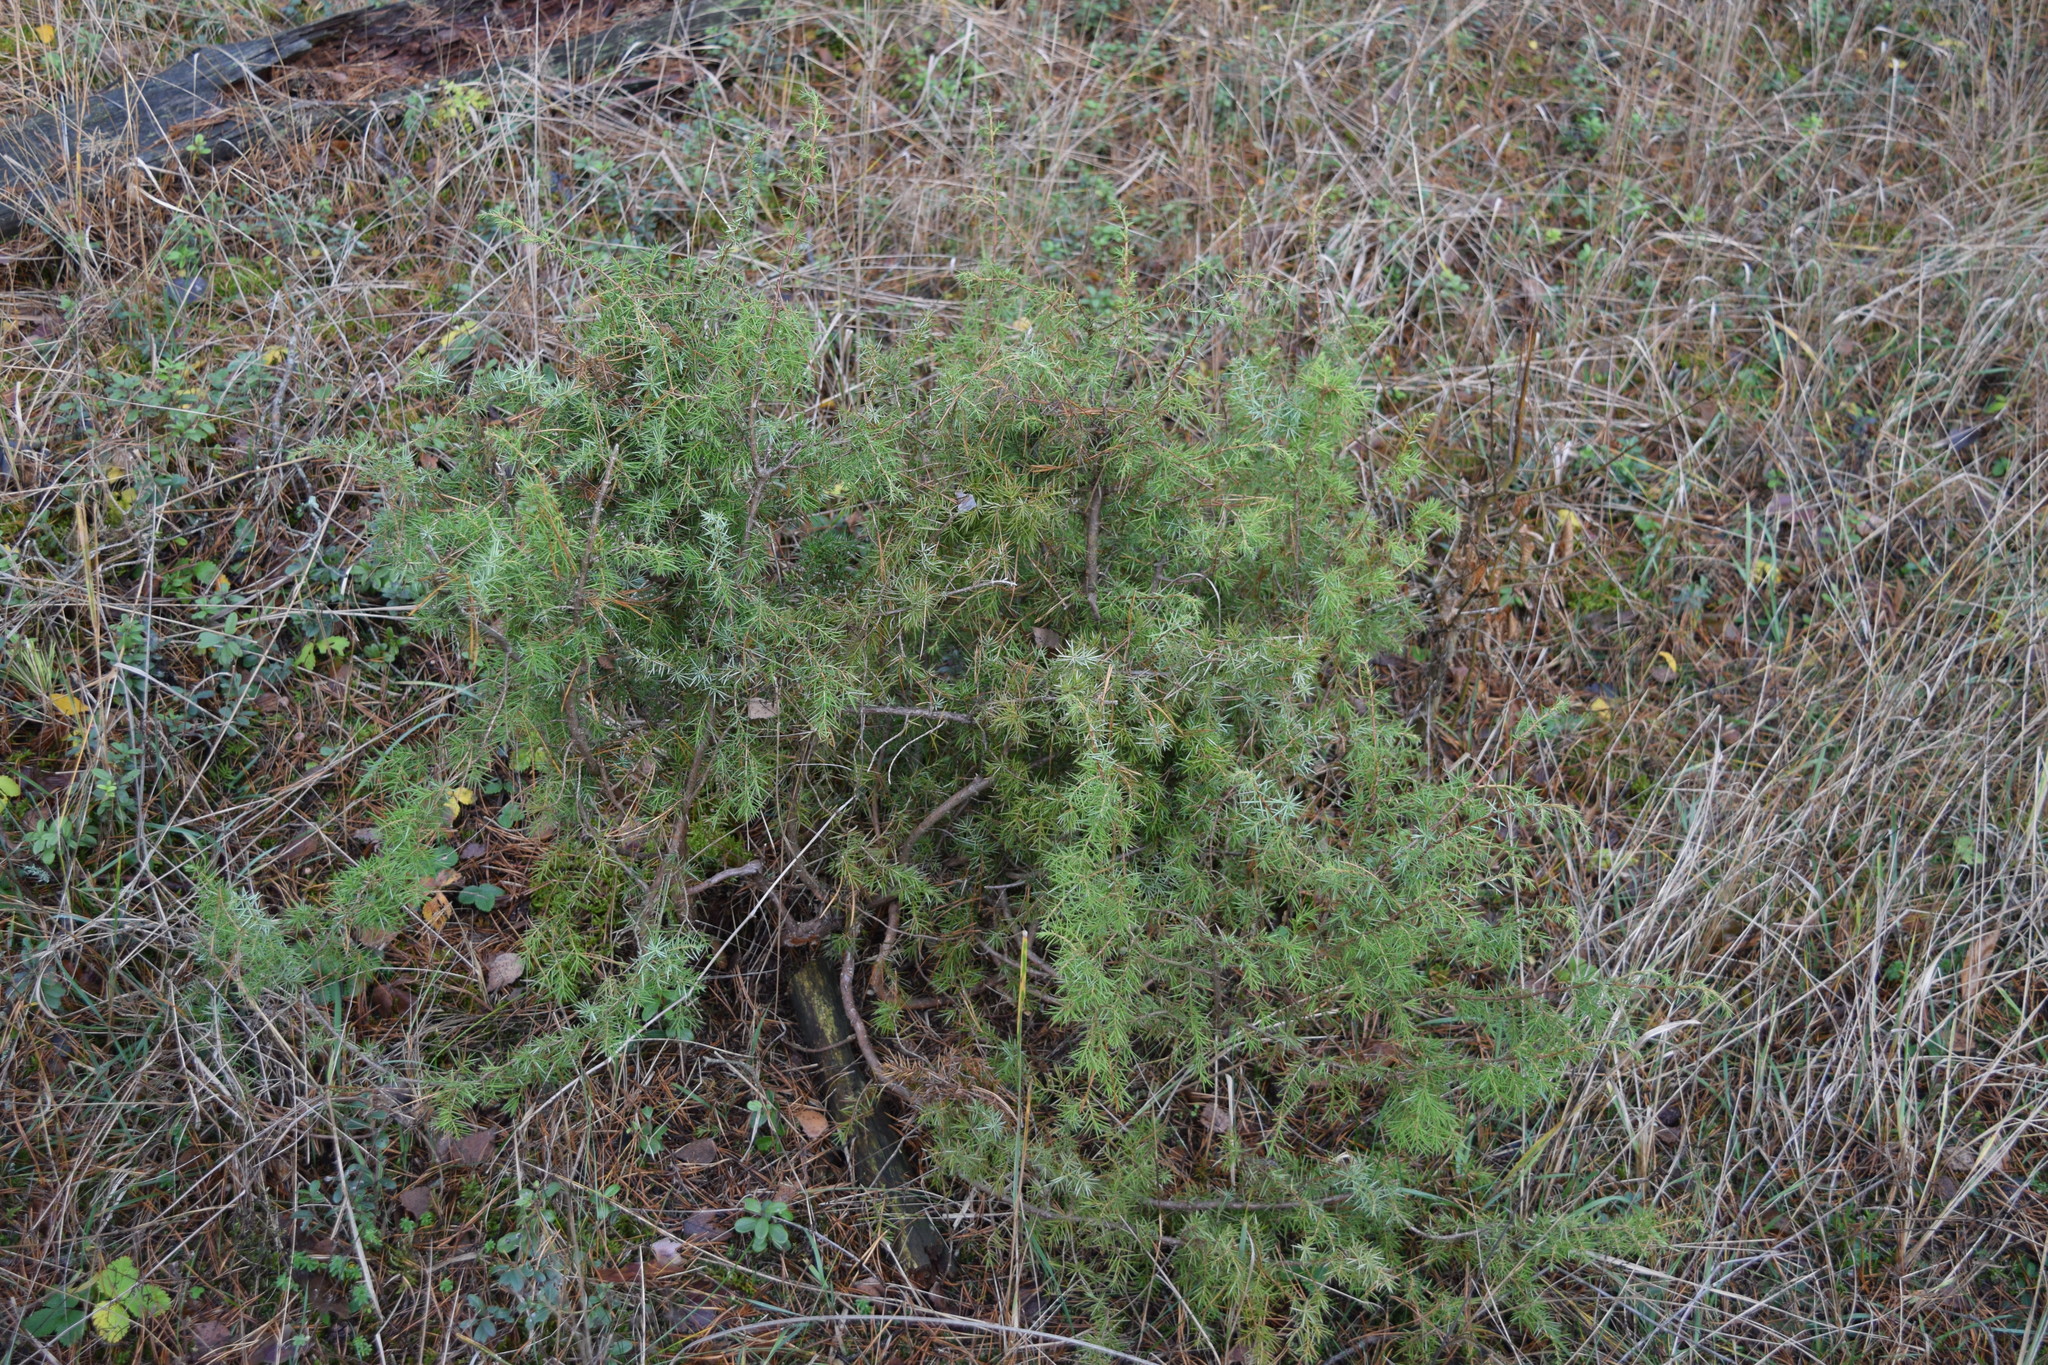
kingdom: Plantae
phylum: Tracheophyta
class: Pinopsida
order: Pinales
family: Cupressaceae
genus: Juniperus
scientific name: Juniperus communis
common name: Common juniper
